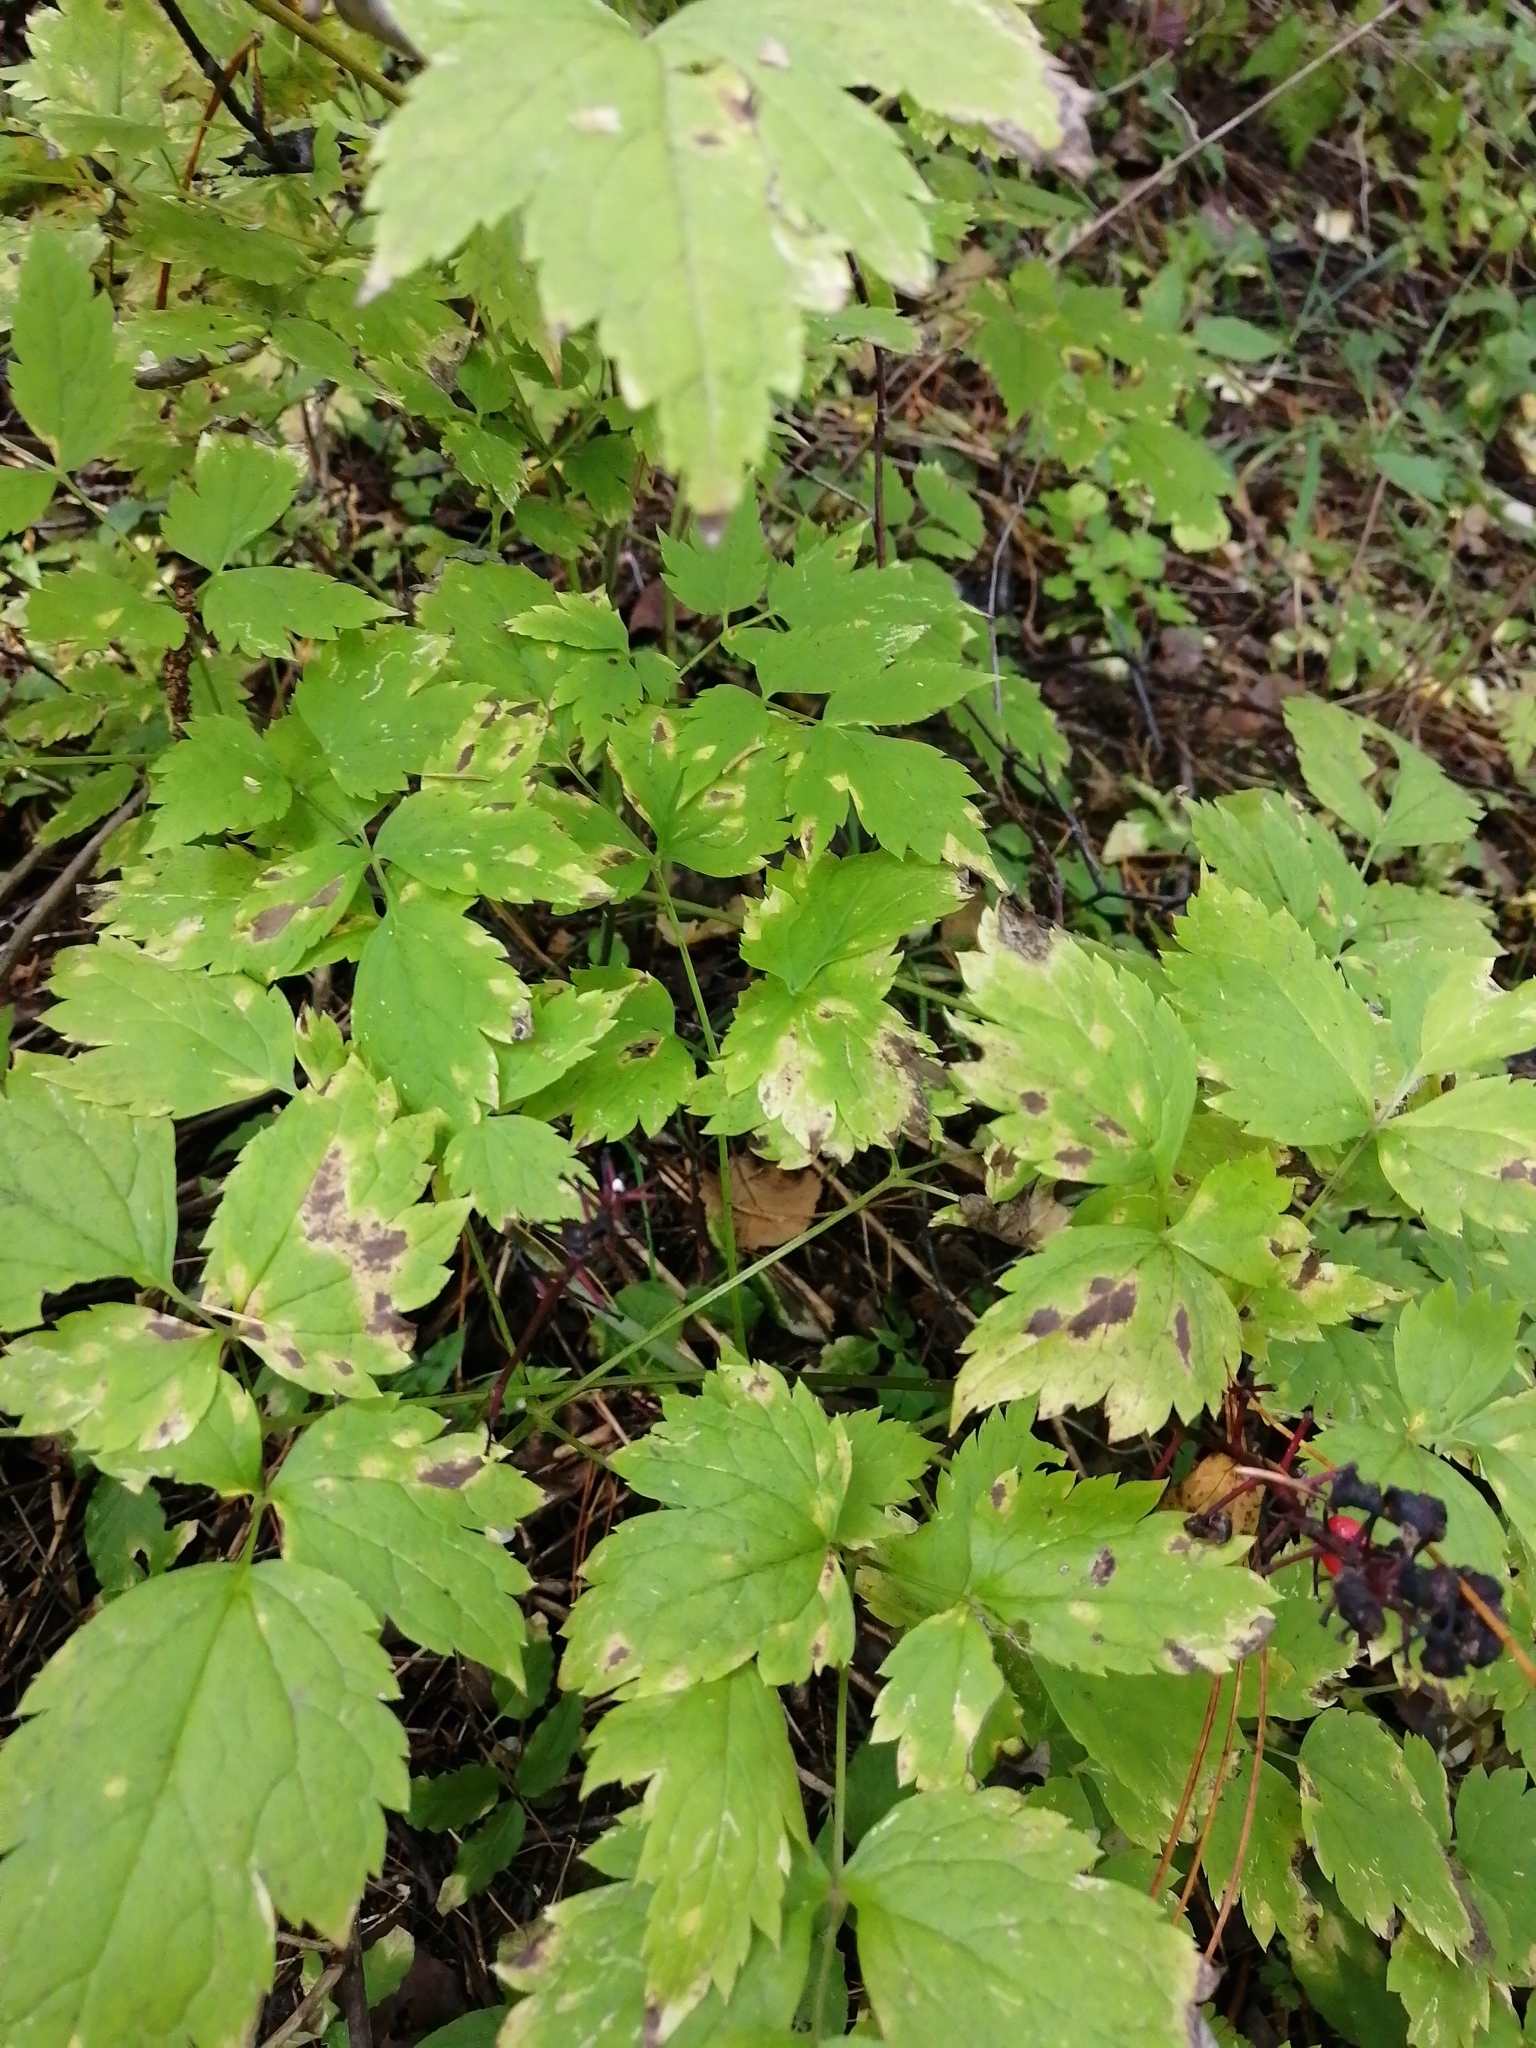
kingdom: Plantae
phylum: Tracheophyta
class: Magnoliopsida
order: Ranunculales
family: Ranunculaceae
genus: Actaea
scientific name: Actaea erythrocarpa
